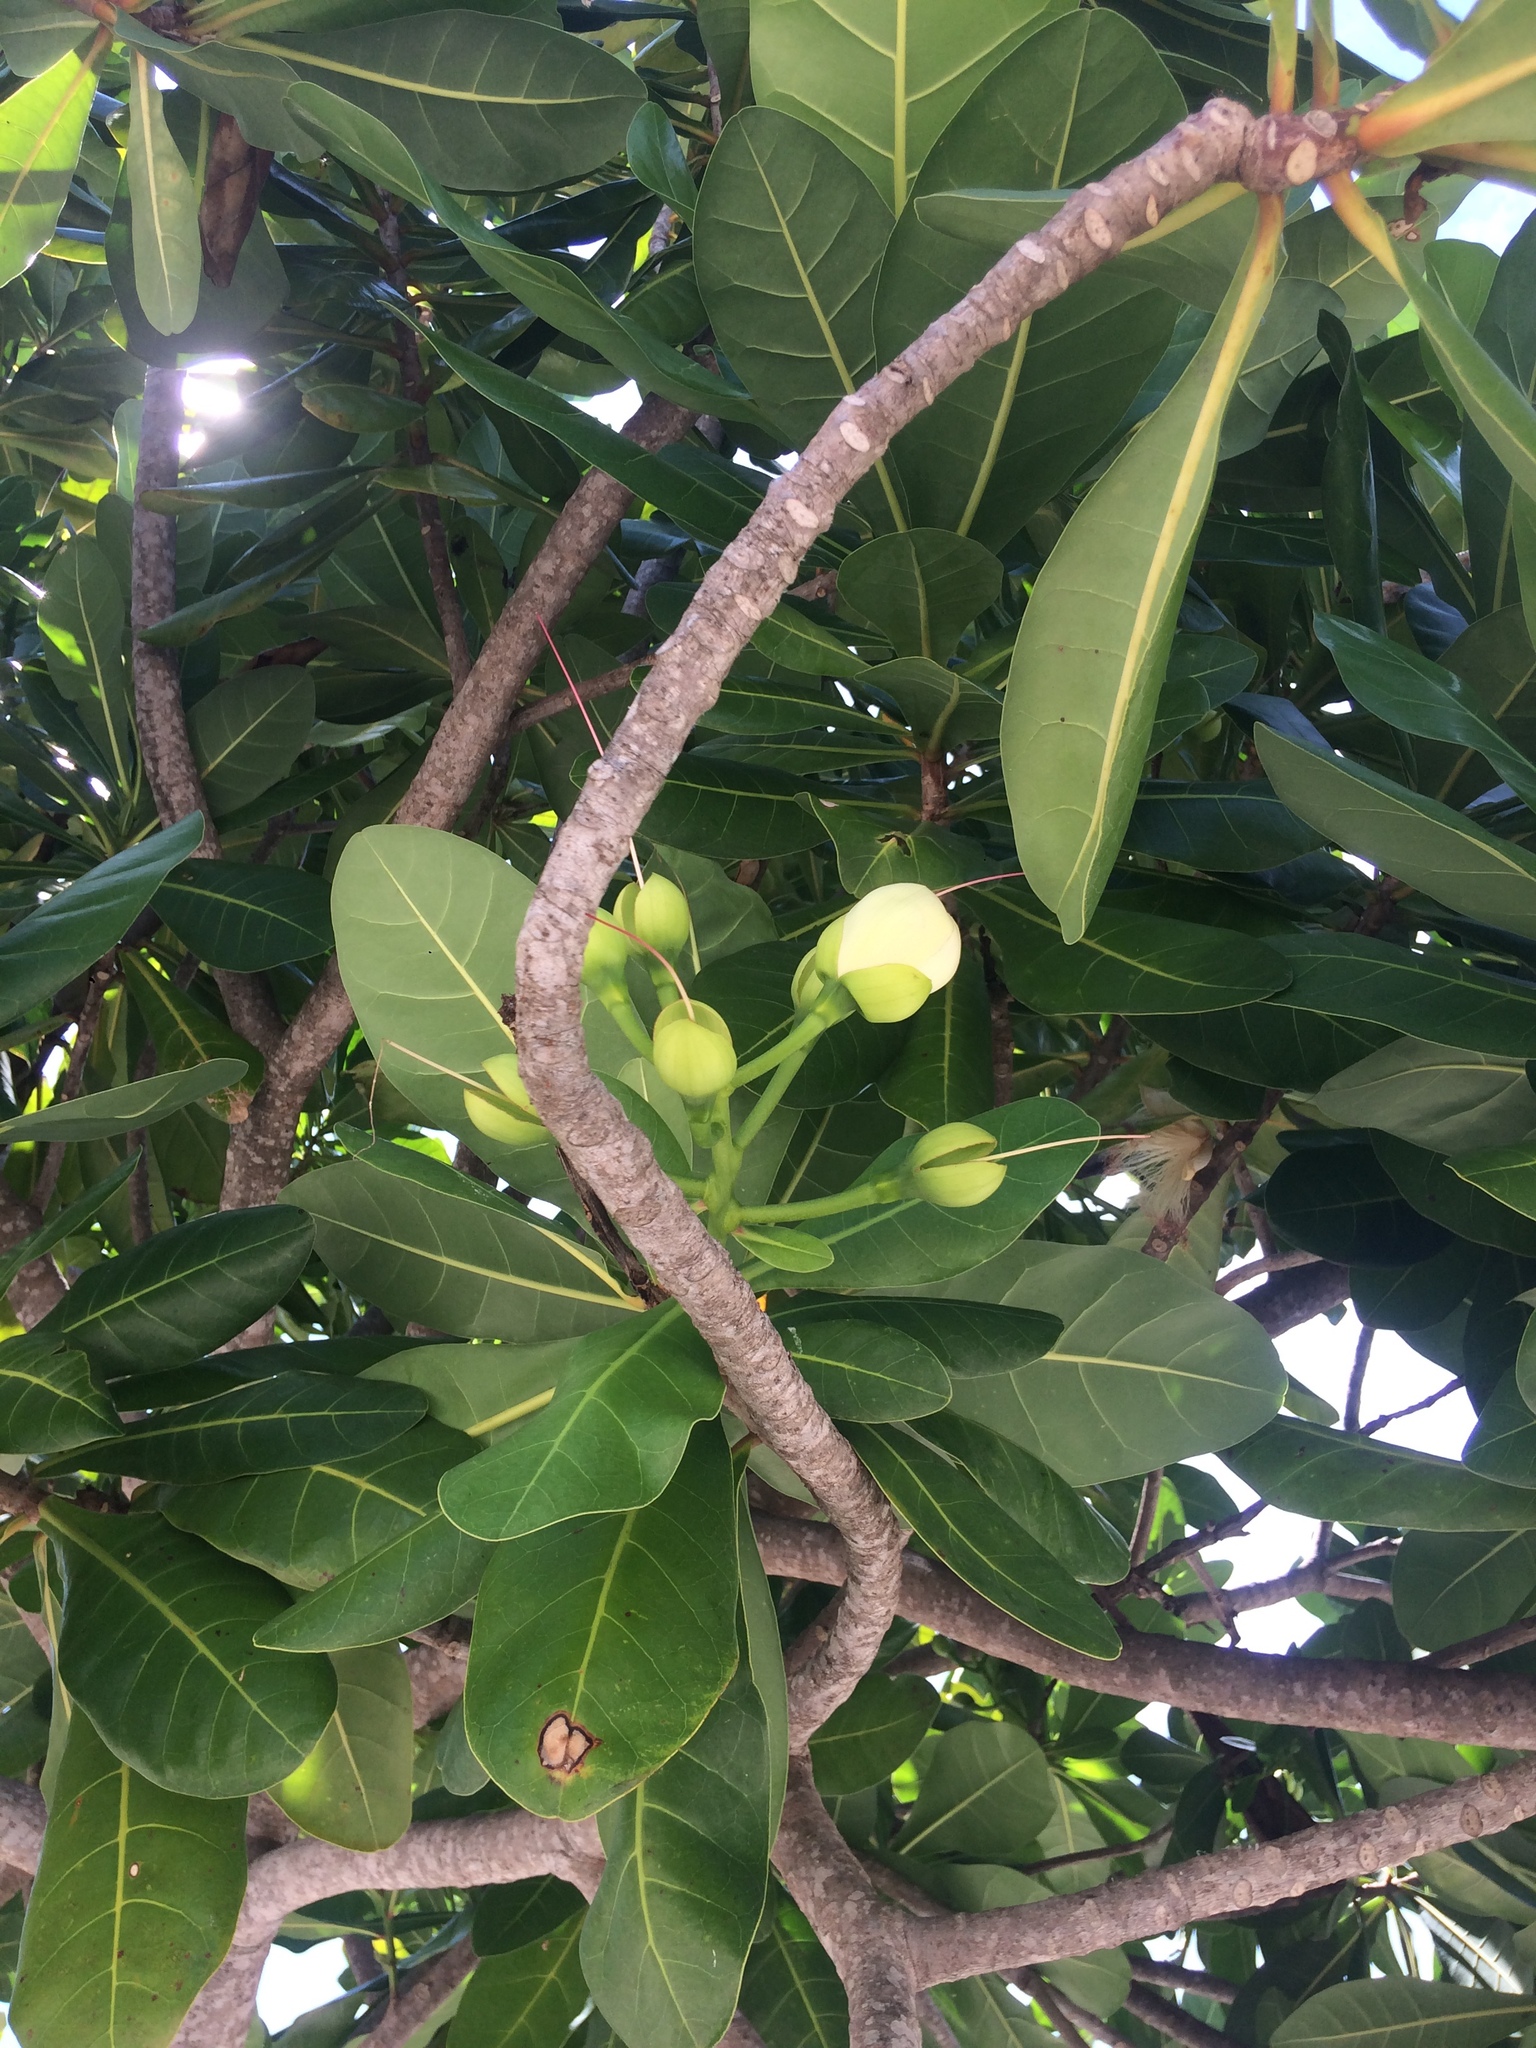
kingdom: Plantae
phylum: Tracheophyta
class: Magnoliopsida
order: Ericales
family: Lecythidaceae
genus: Barringtonia
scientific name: Barringtonia asiatica
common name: Mango-pine
